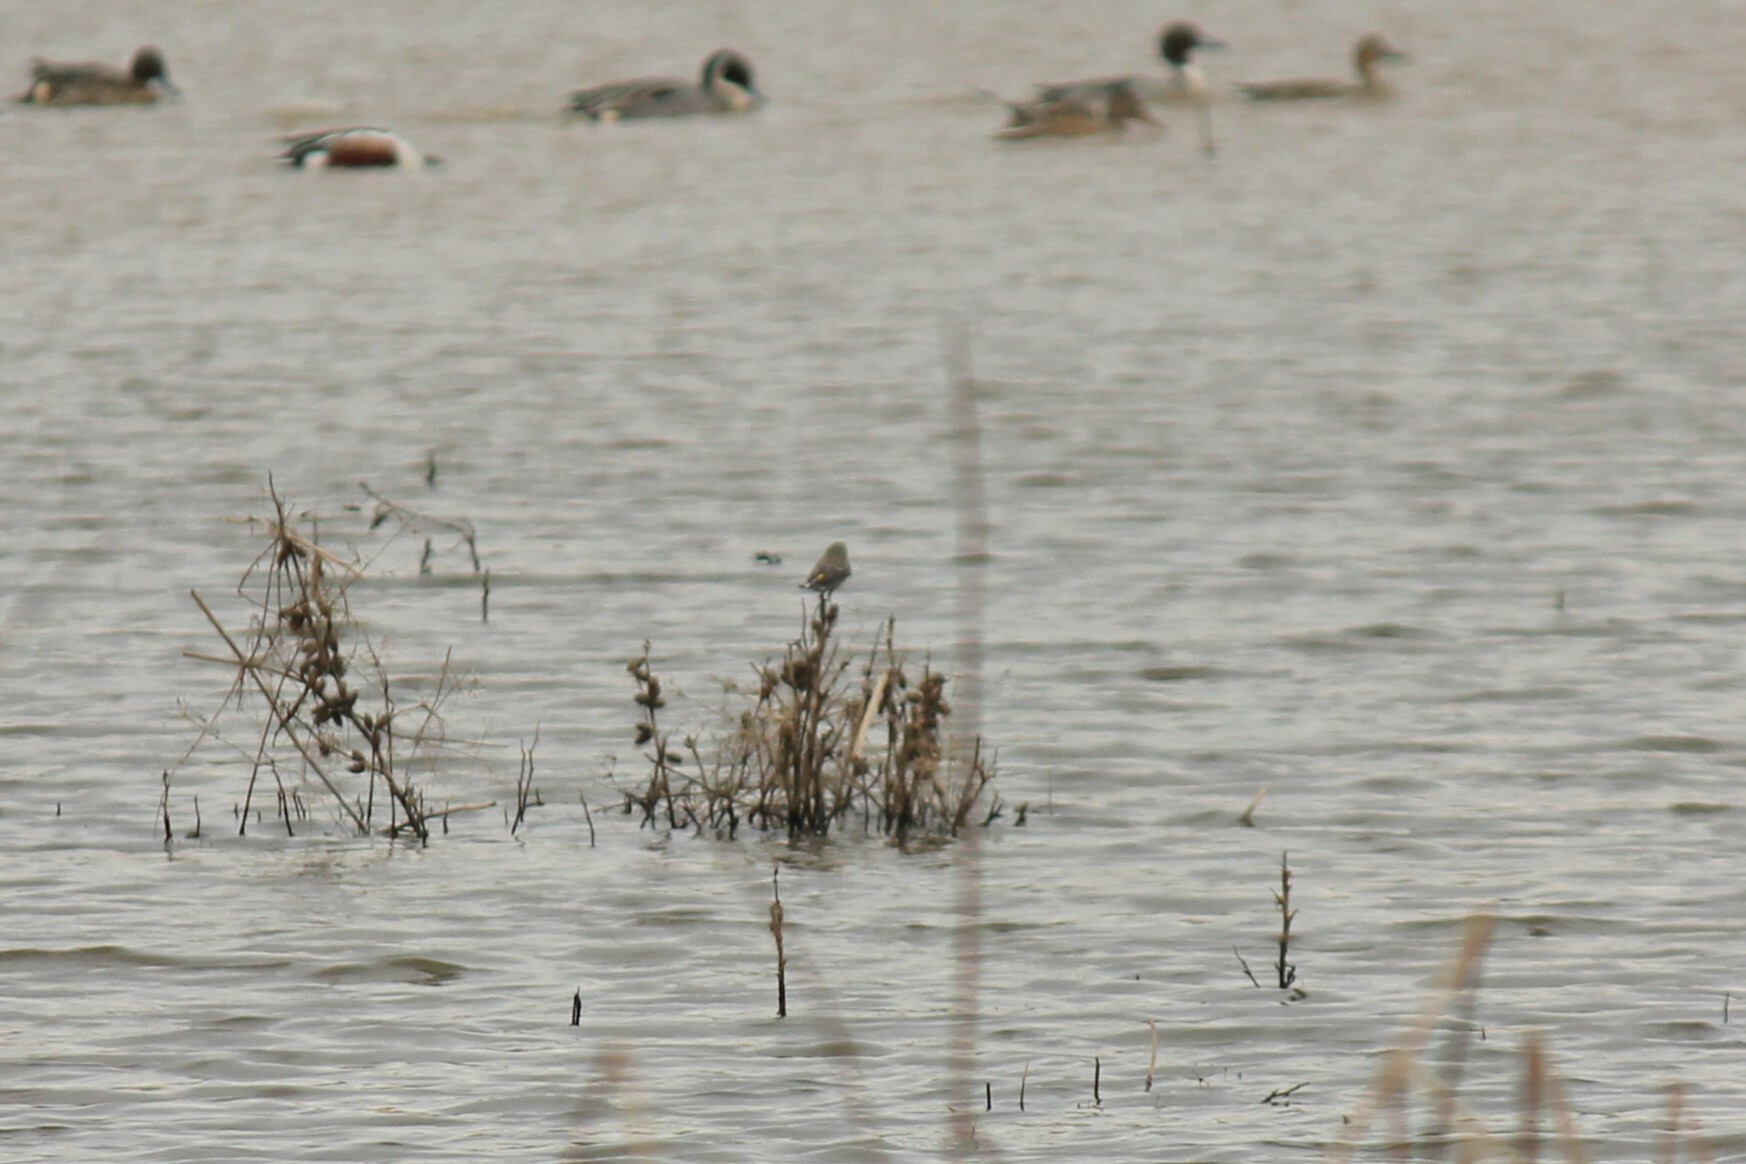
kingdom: Animalia
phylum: Chordata
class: Aves
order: Passeriformes
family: Parulidae
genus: Setophaga
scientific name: Setophaga coronata
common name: Myrtle warbler
